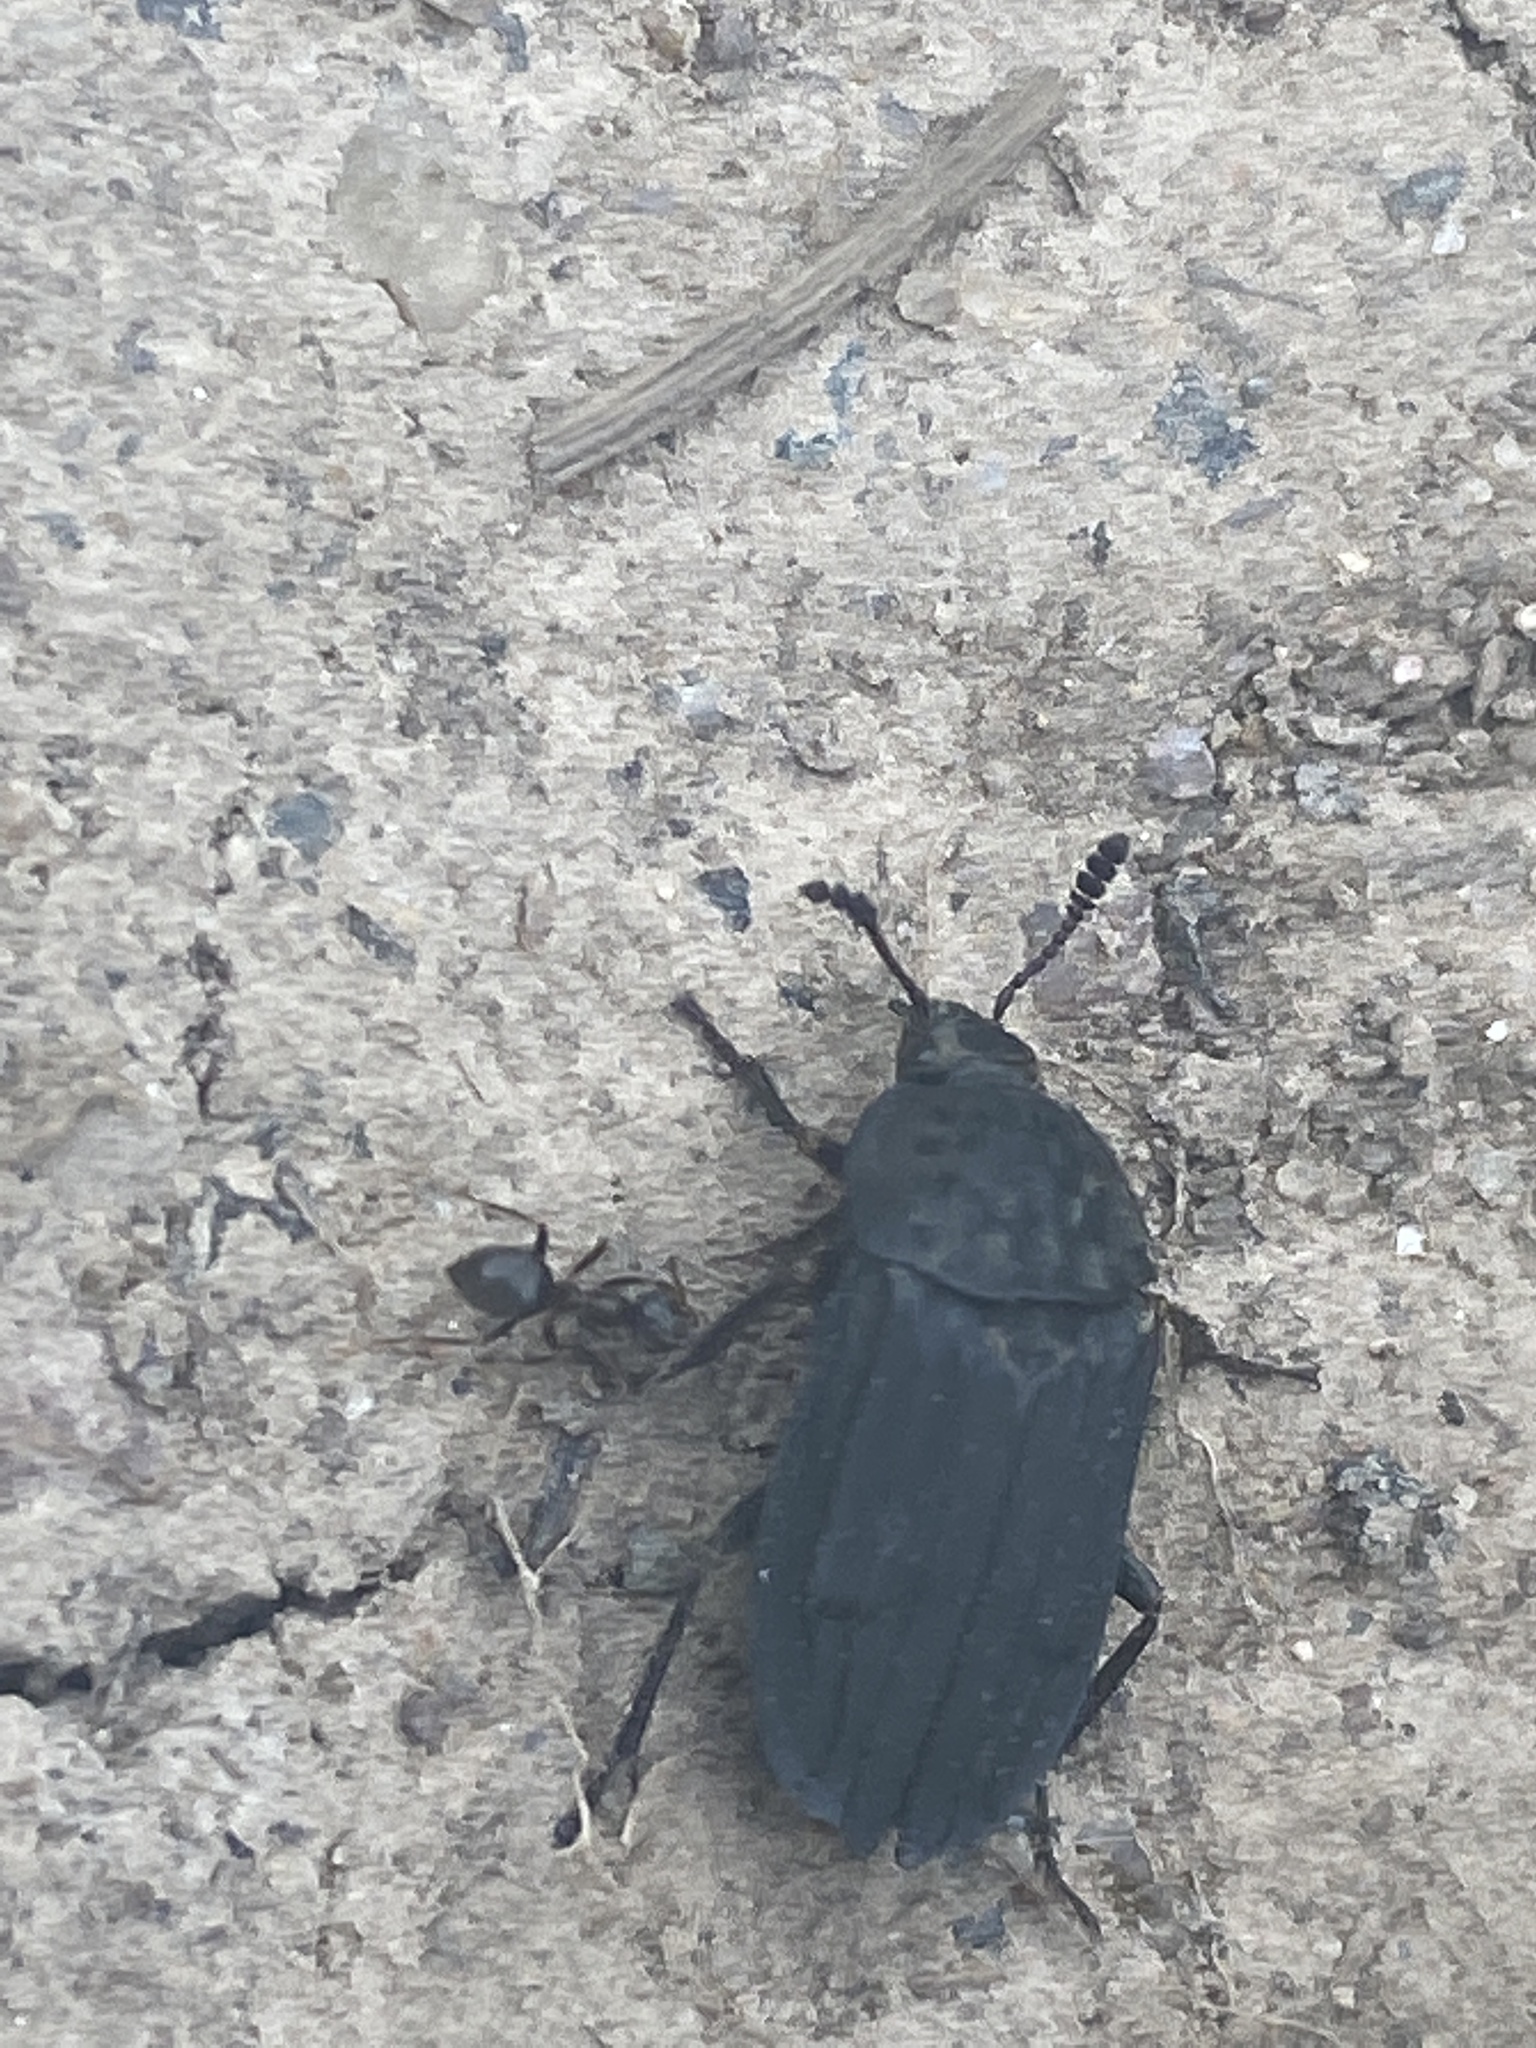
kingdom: Animalia
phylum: Arthropoda
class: Insecta
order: Coleoptera
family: Staphylinidae
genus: Thanatophilus
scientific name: Thanatophilus sinuatus
